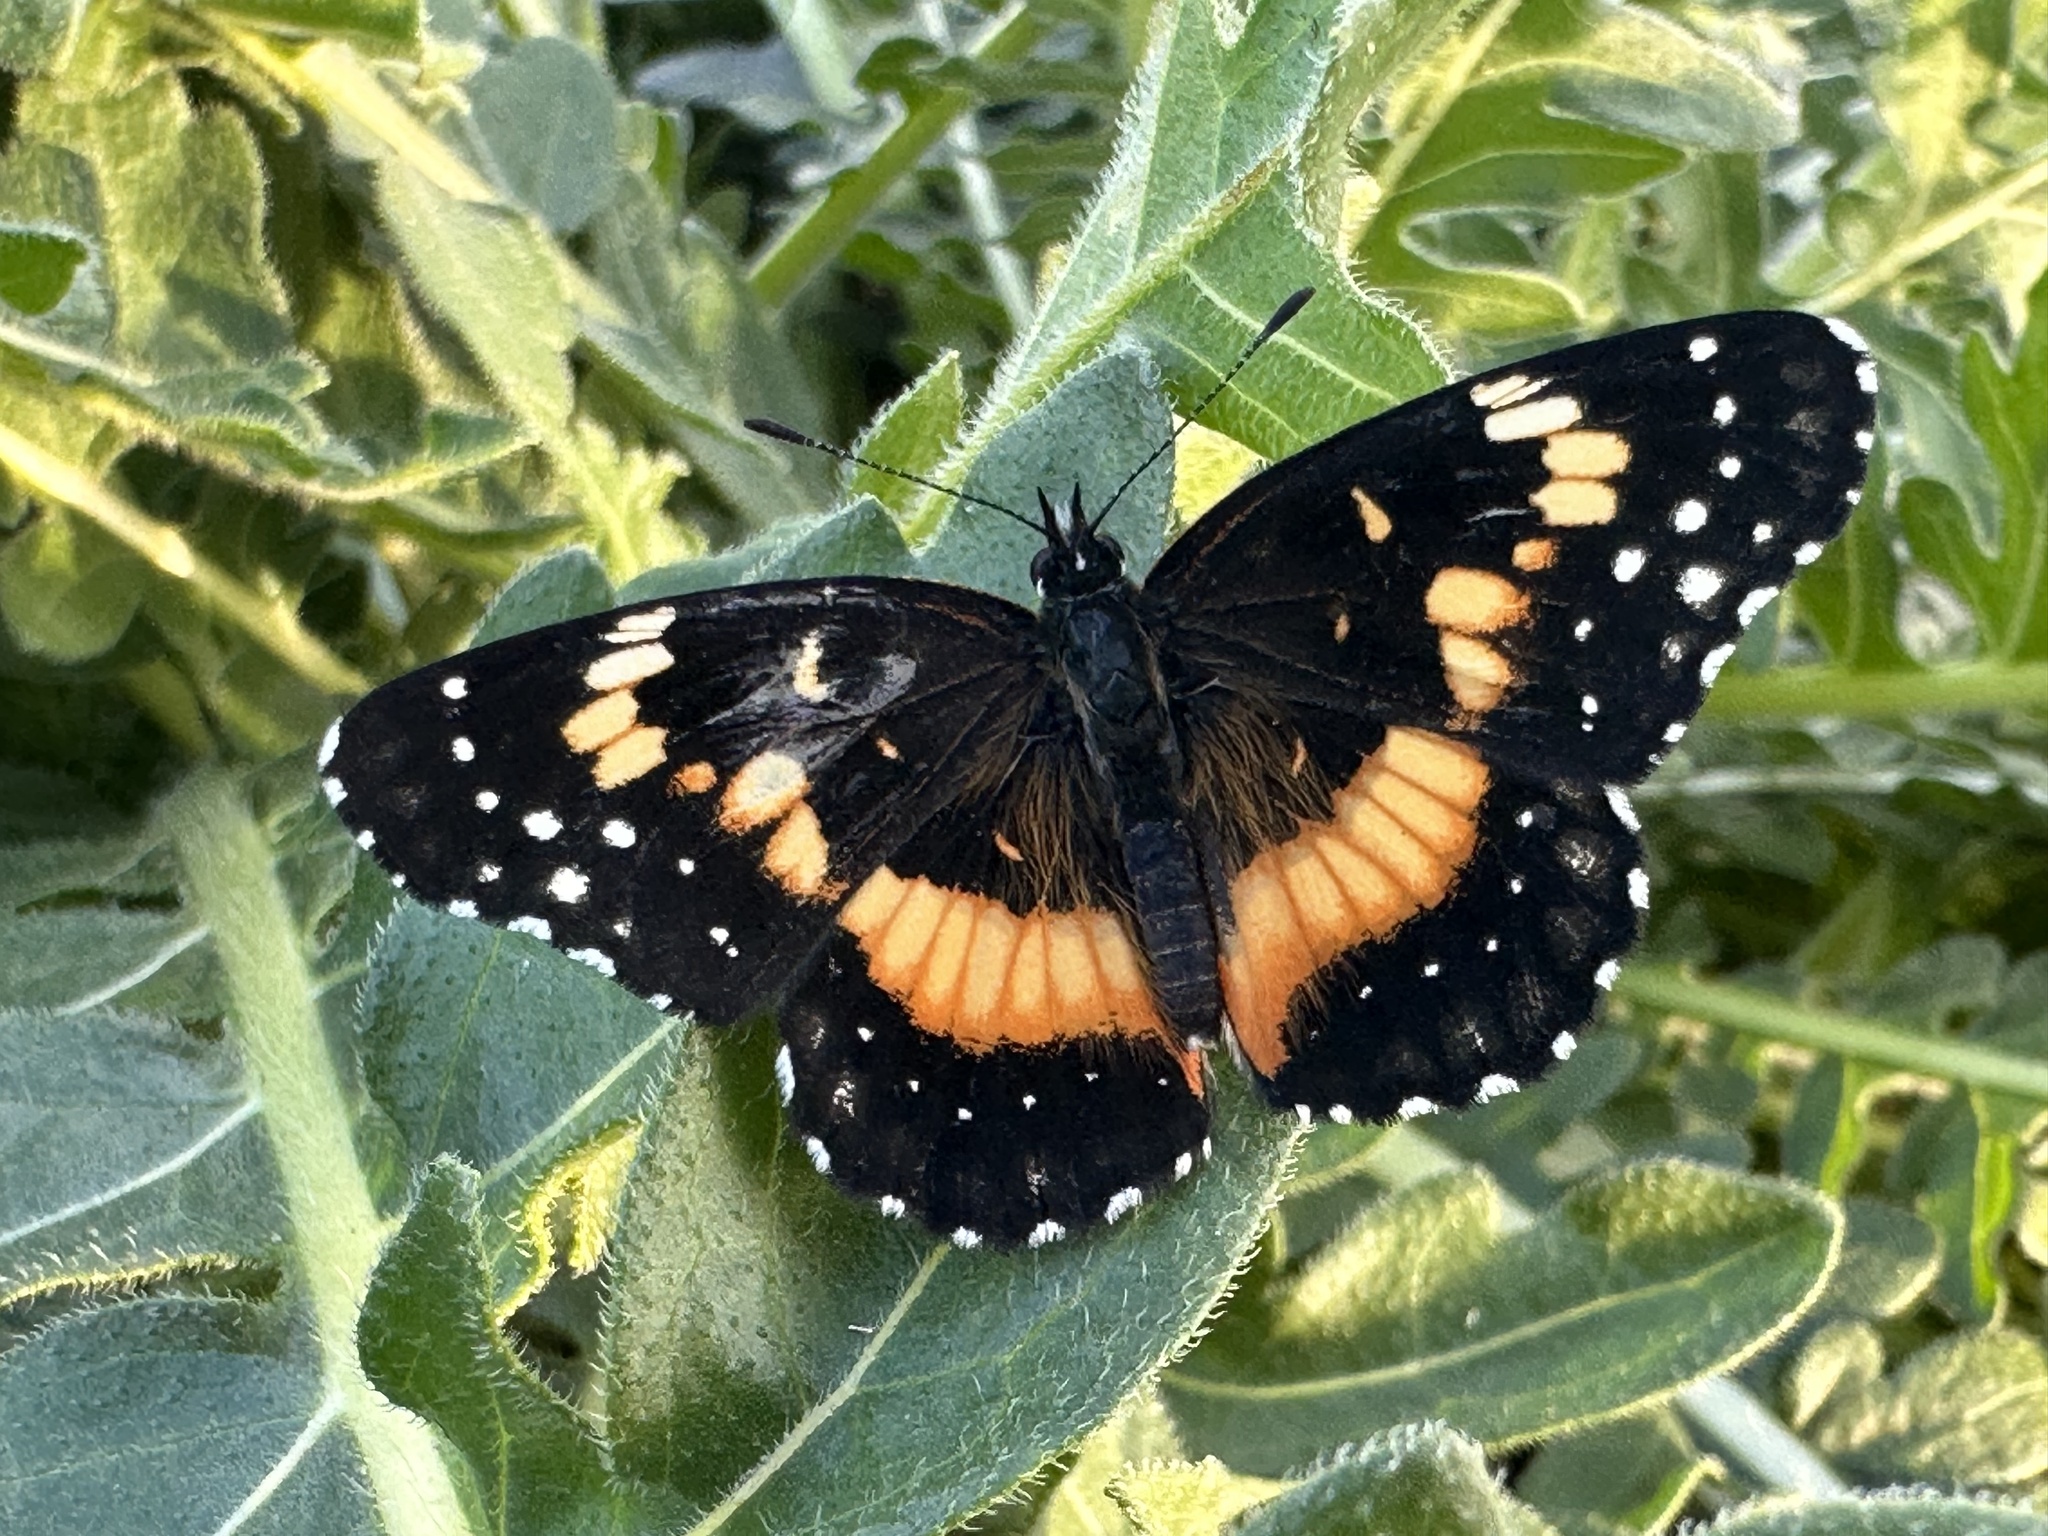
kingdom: Animalia
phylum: Arthropoda
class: Insecta
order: Lepidoptera
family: Nymphalidae
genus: Chlosyne
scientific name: Chlosyne lacinia
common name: Bordered patch
